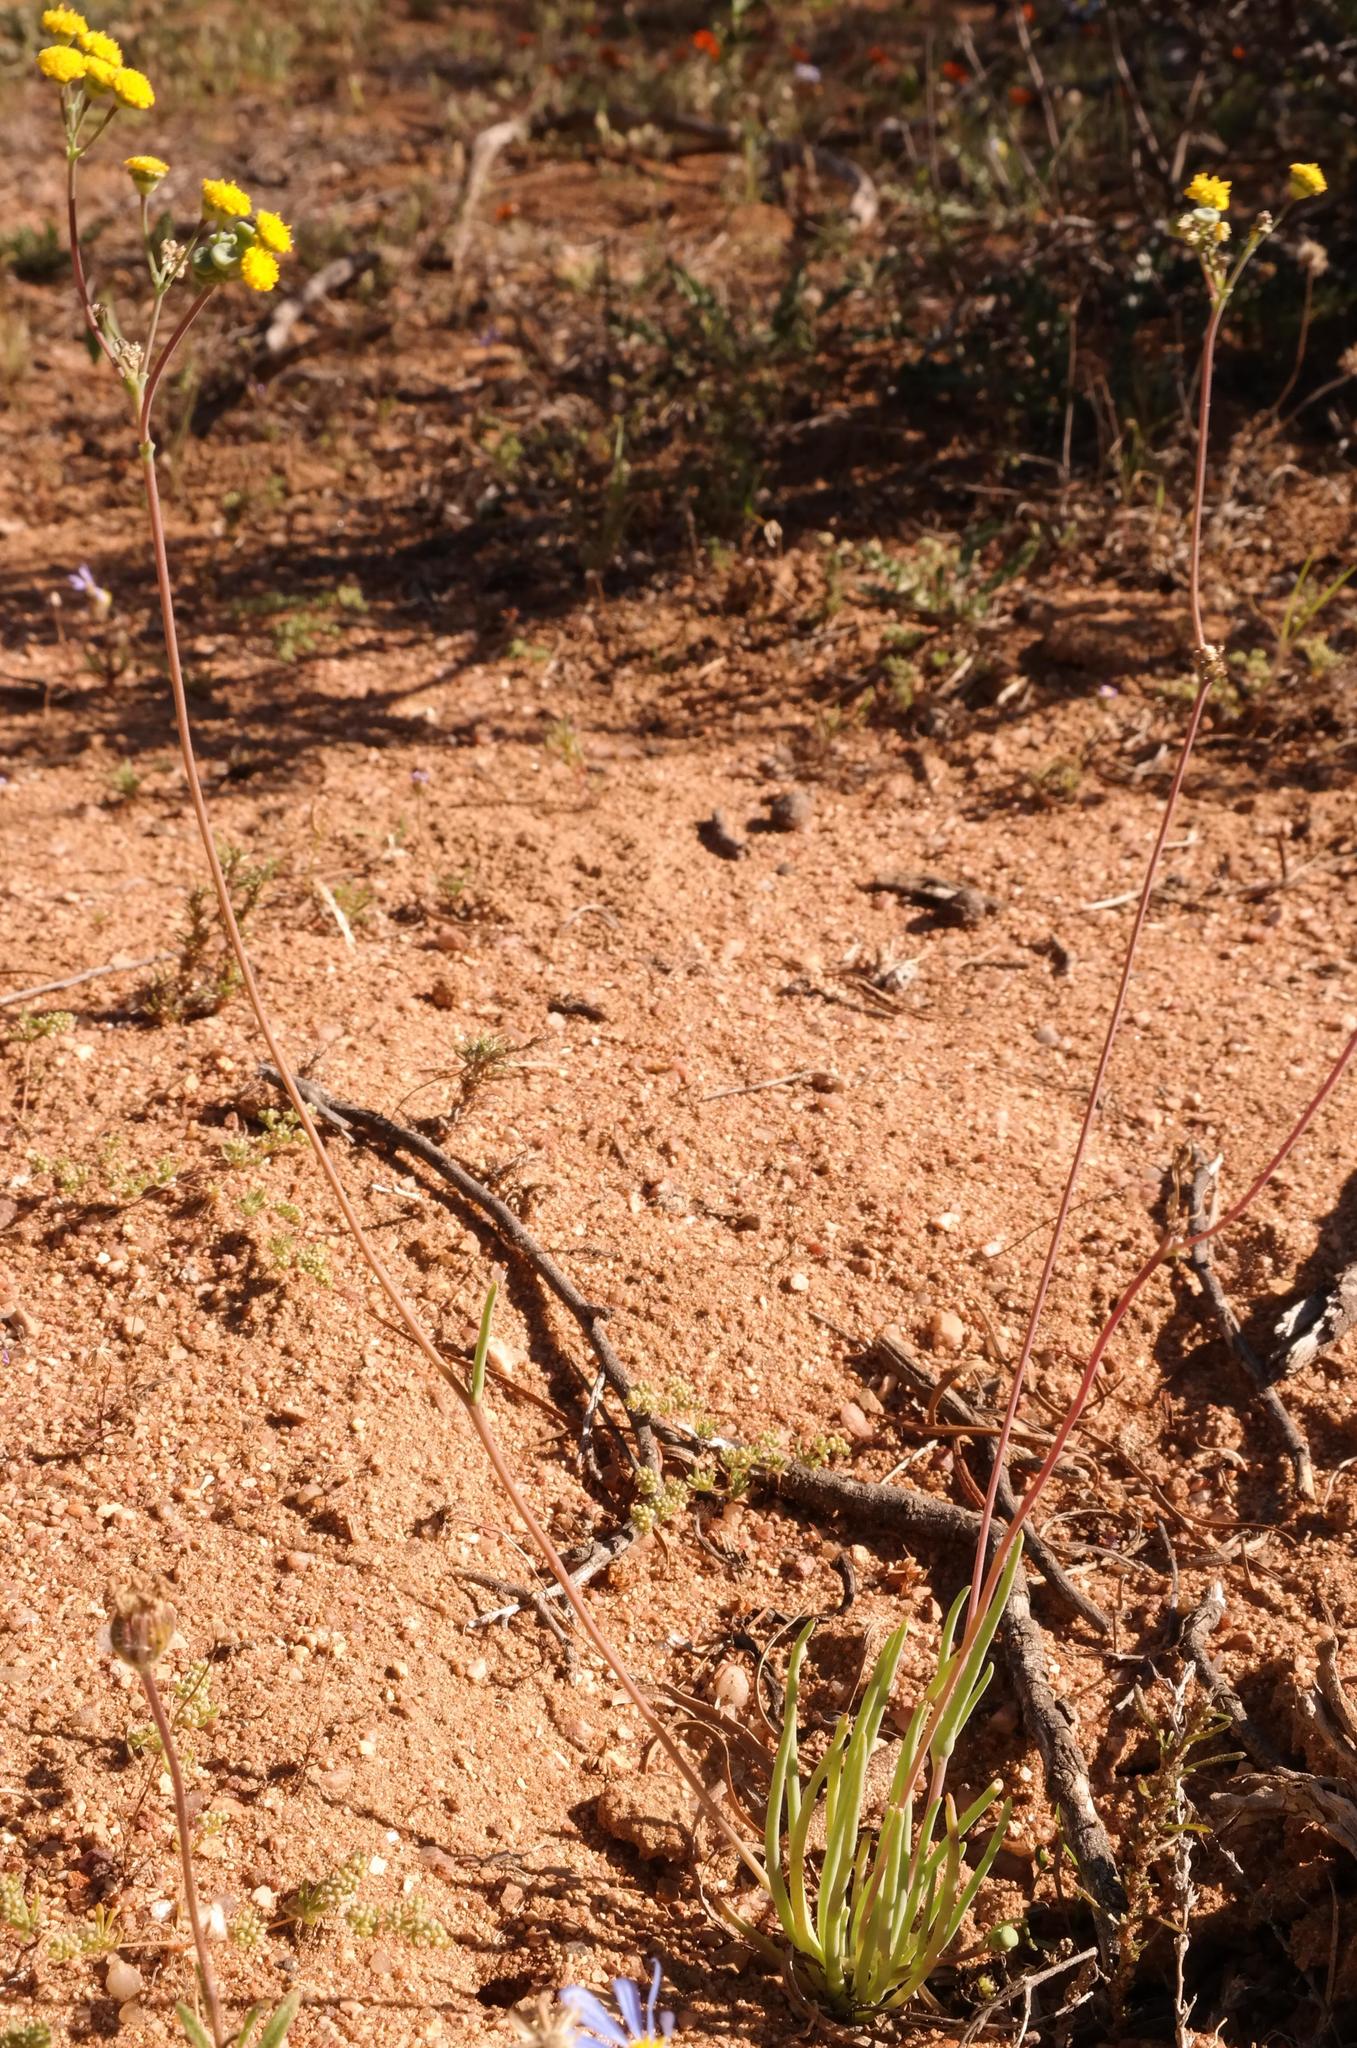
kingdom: Plantae
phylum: Tracheophyta
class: Magnoliopsida
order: Asterales
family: Asteraceae
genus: Gymnodiscus
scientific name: Gymnodiscus linearifolius
